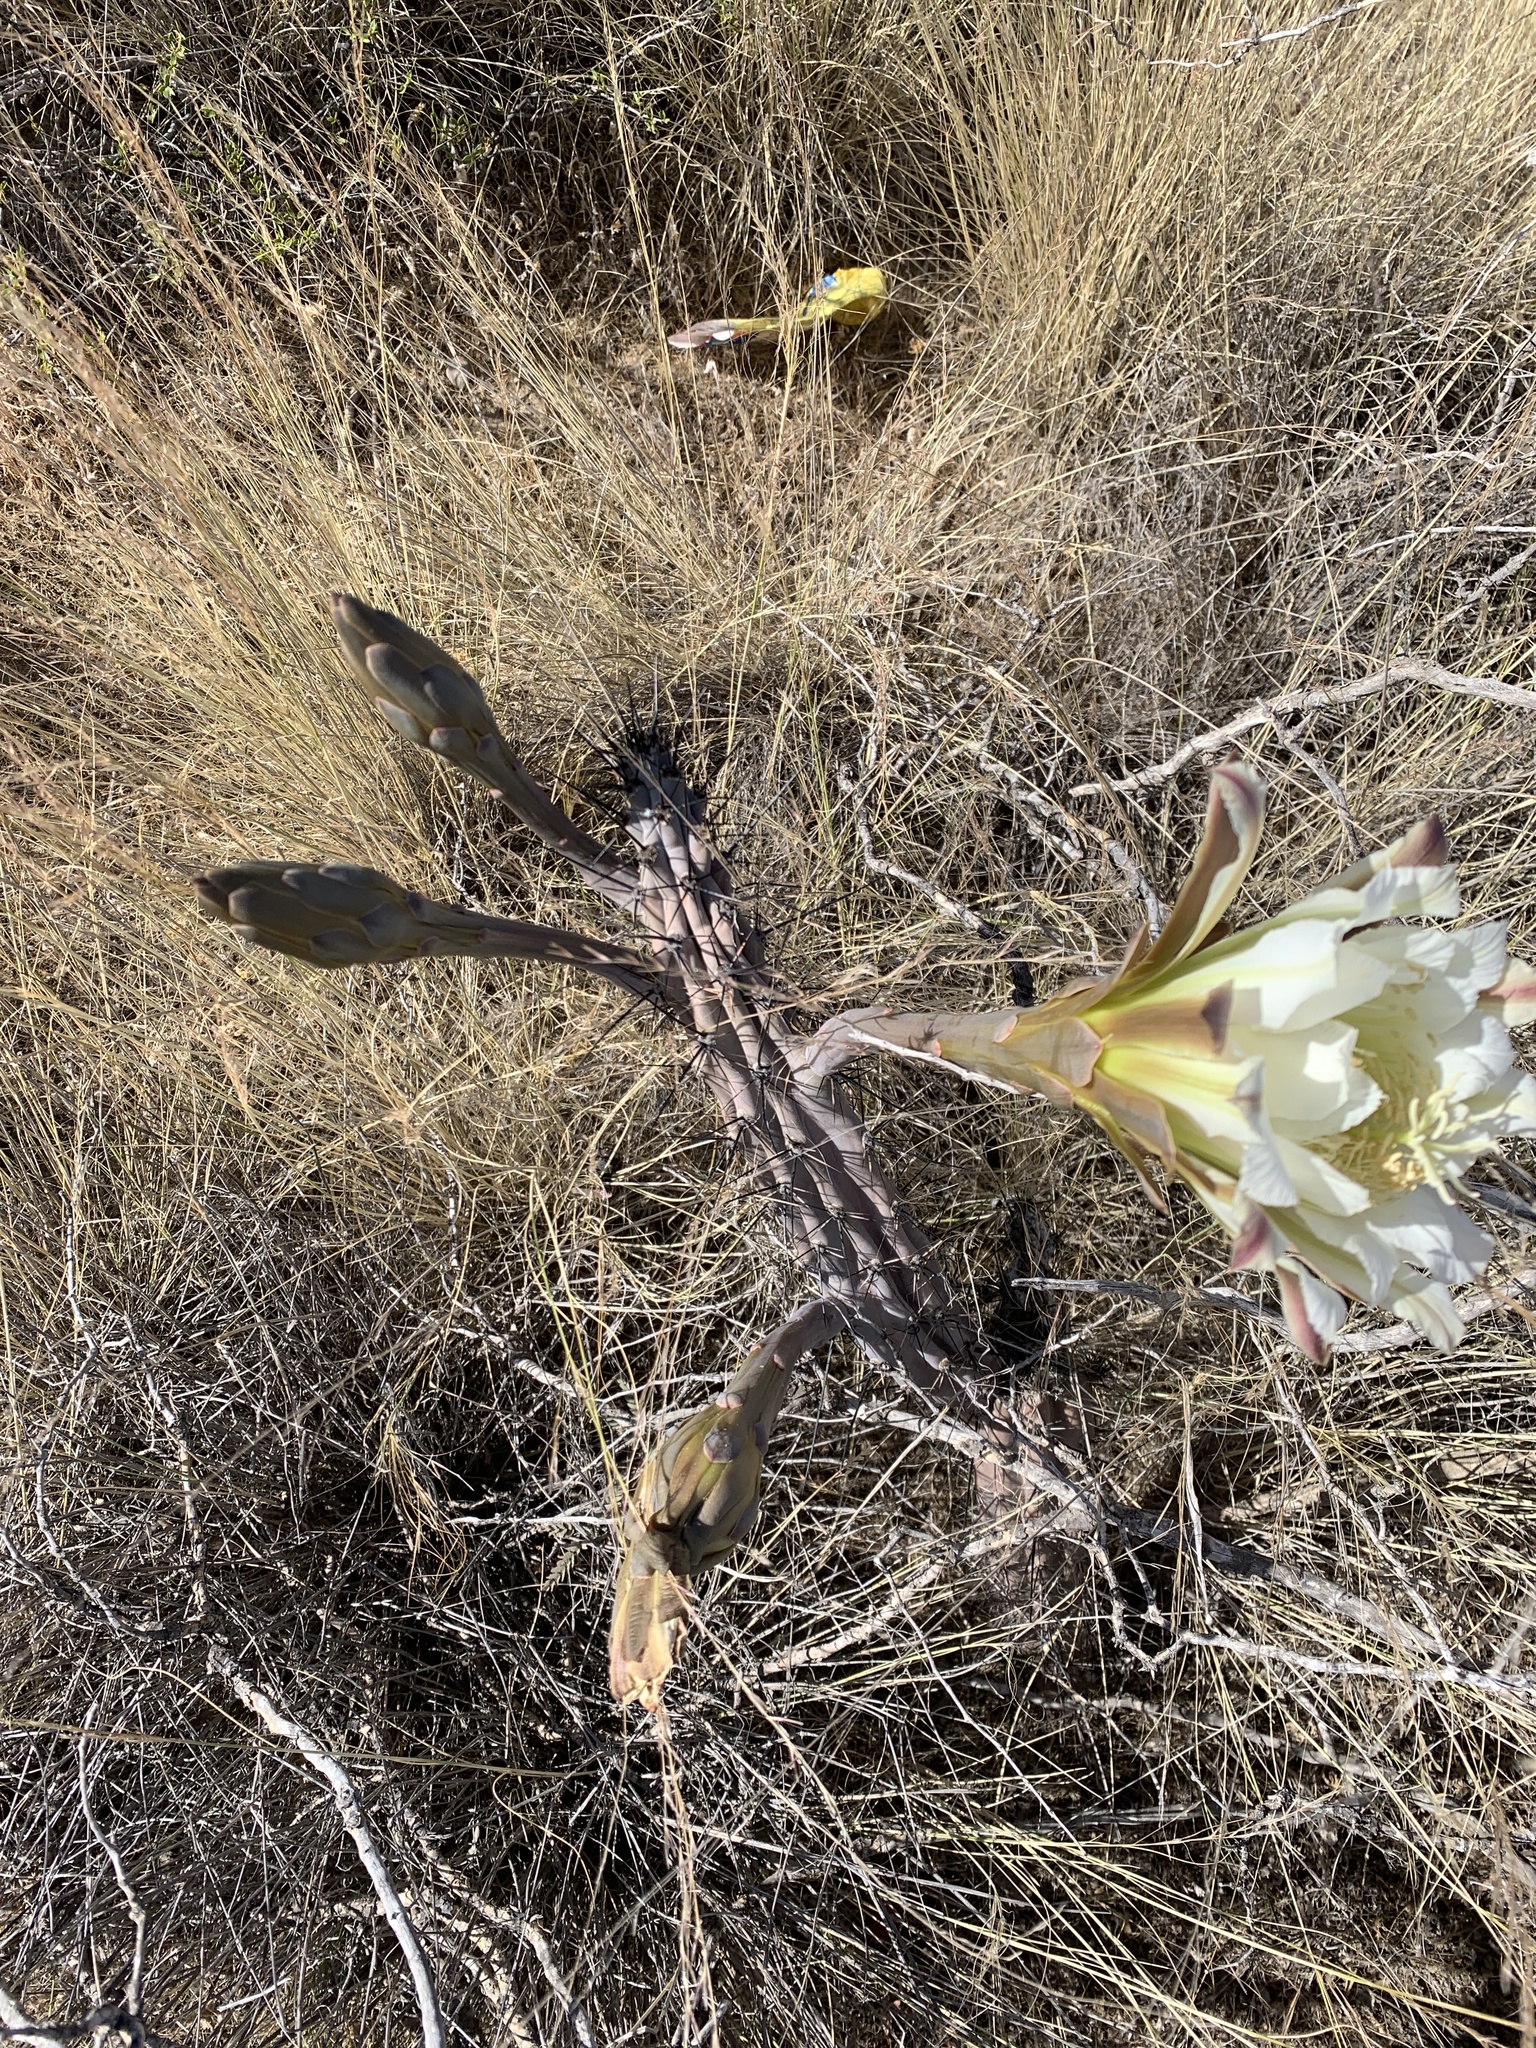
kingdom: Plantae
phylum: Tracheophyta
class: Magnoliopsida
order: Caryophyllales
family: Cactaceae
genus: Cereus
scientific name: Cereus aethiops
